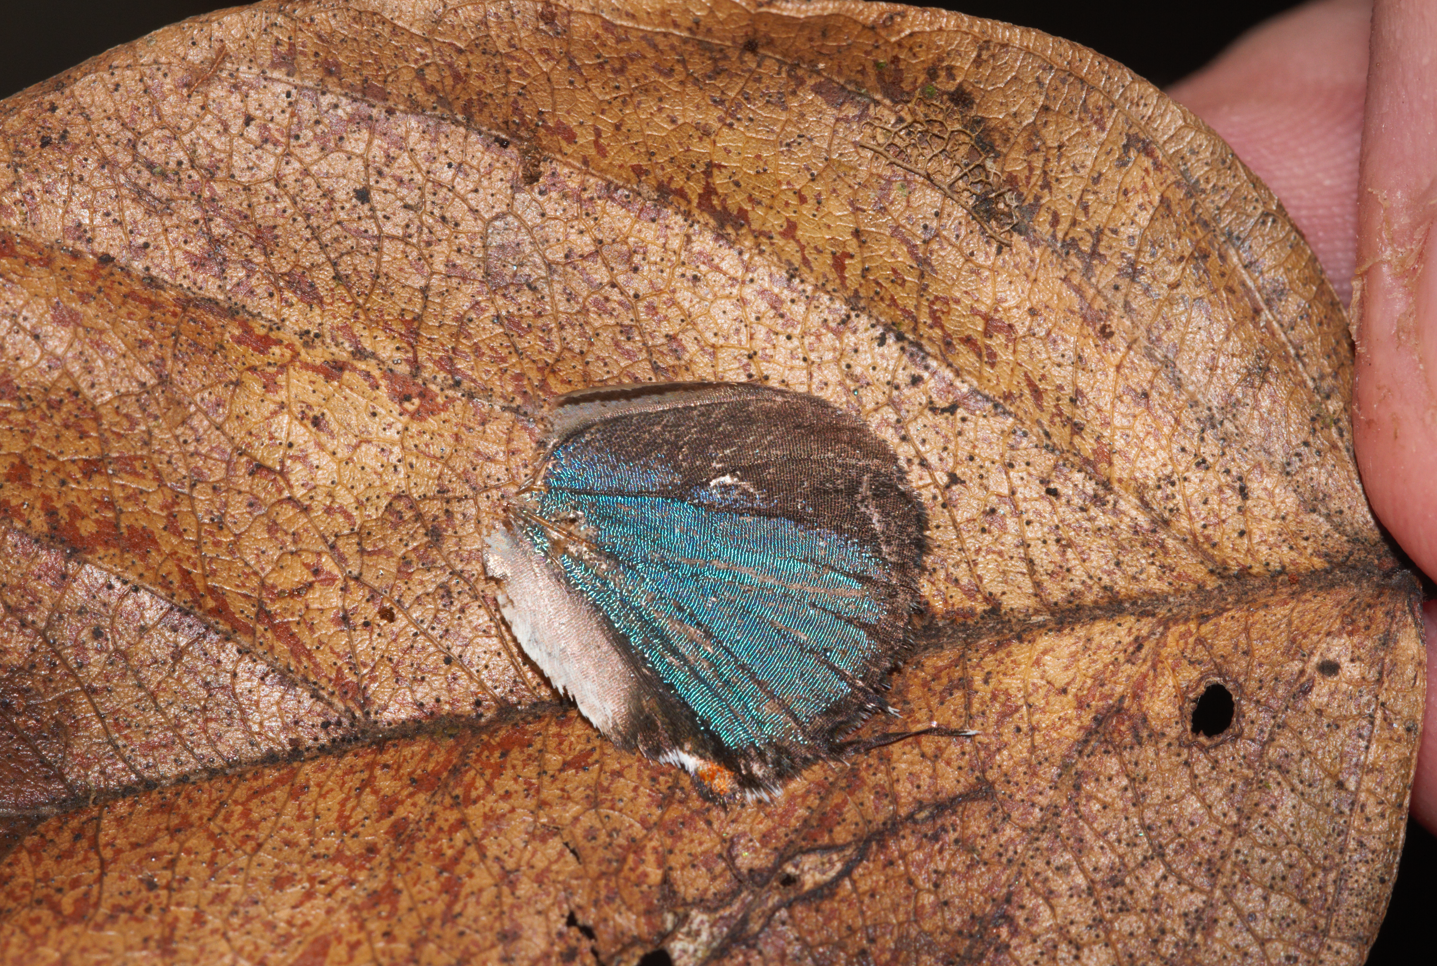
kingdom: Animalia
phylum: Arthropoda
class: Insecta
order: Lepidoptera
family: Lycaenidae
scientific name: Lycaenidae
